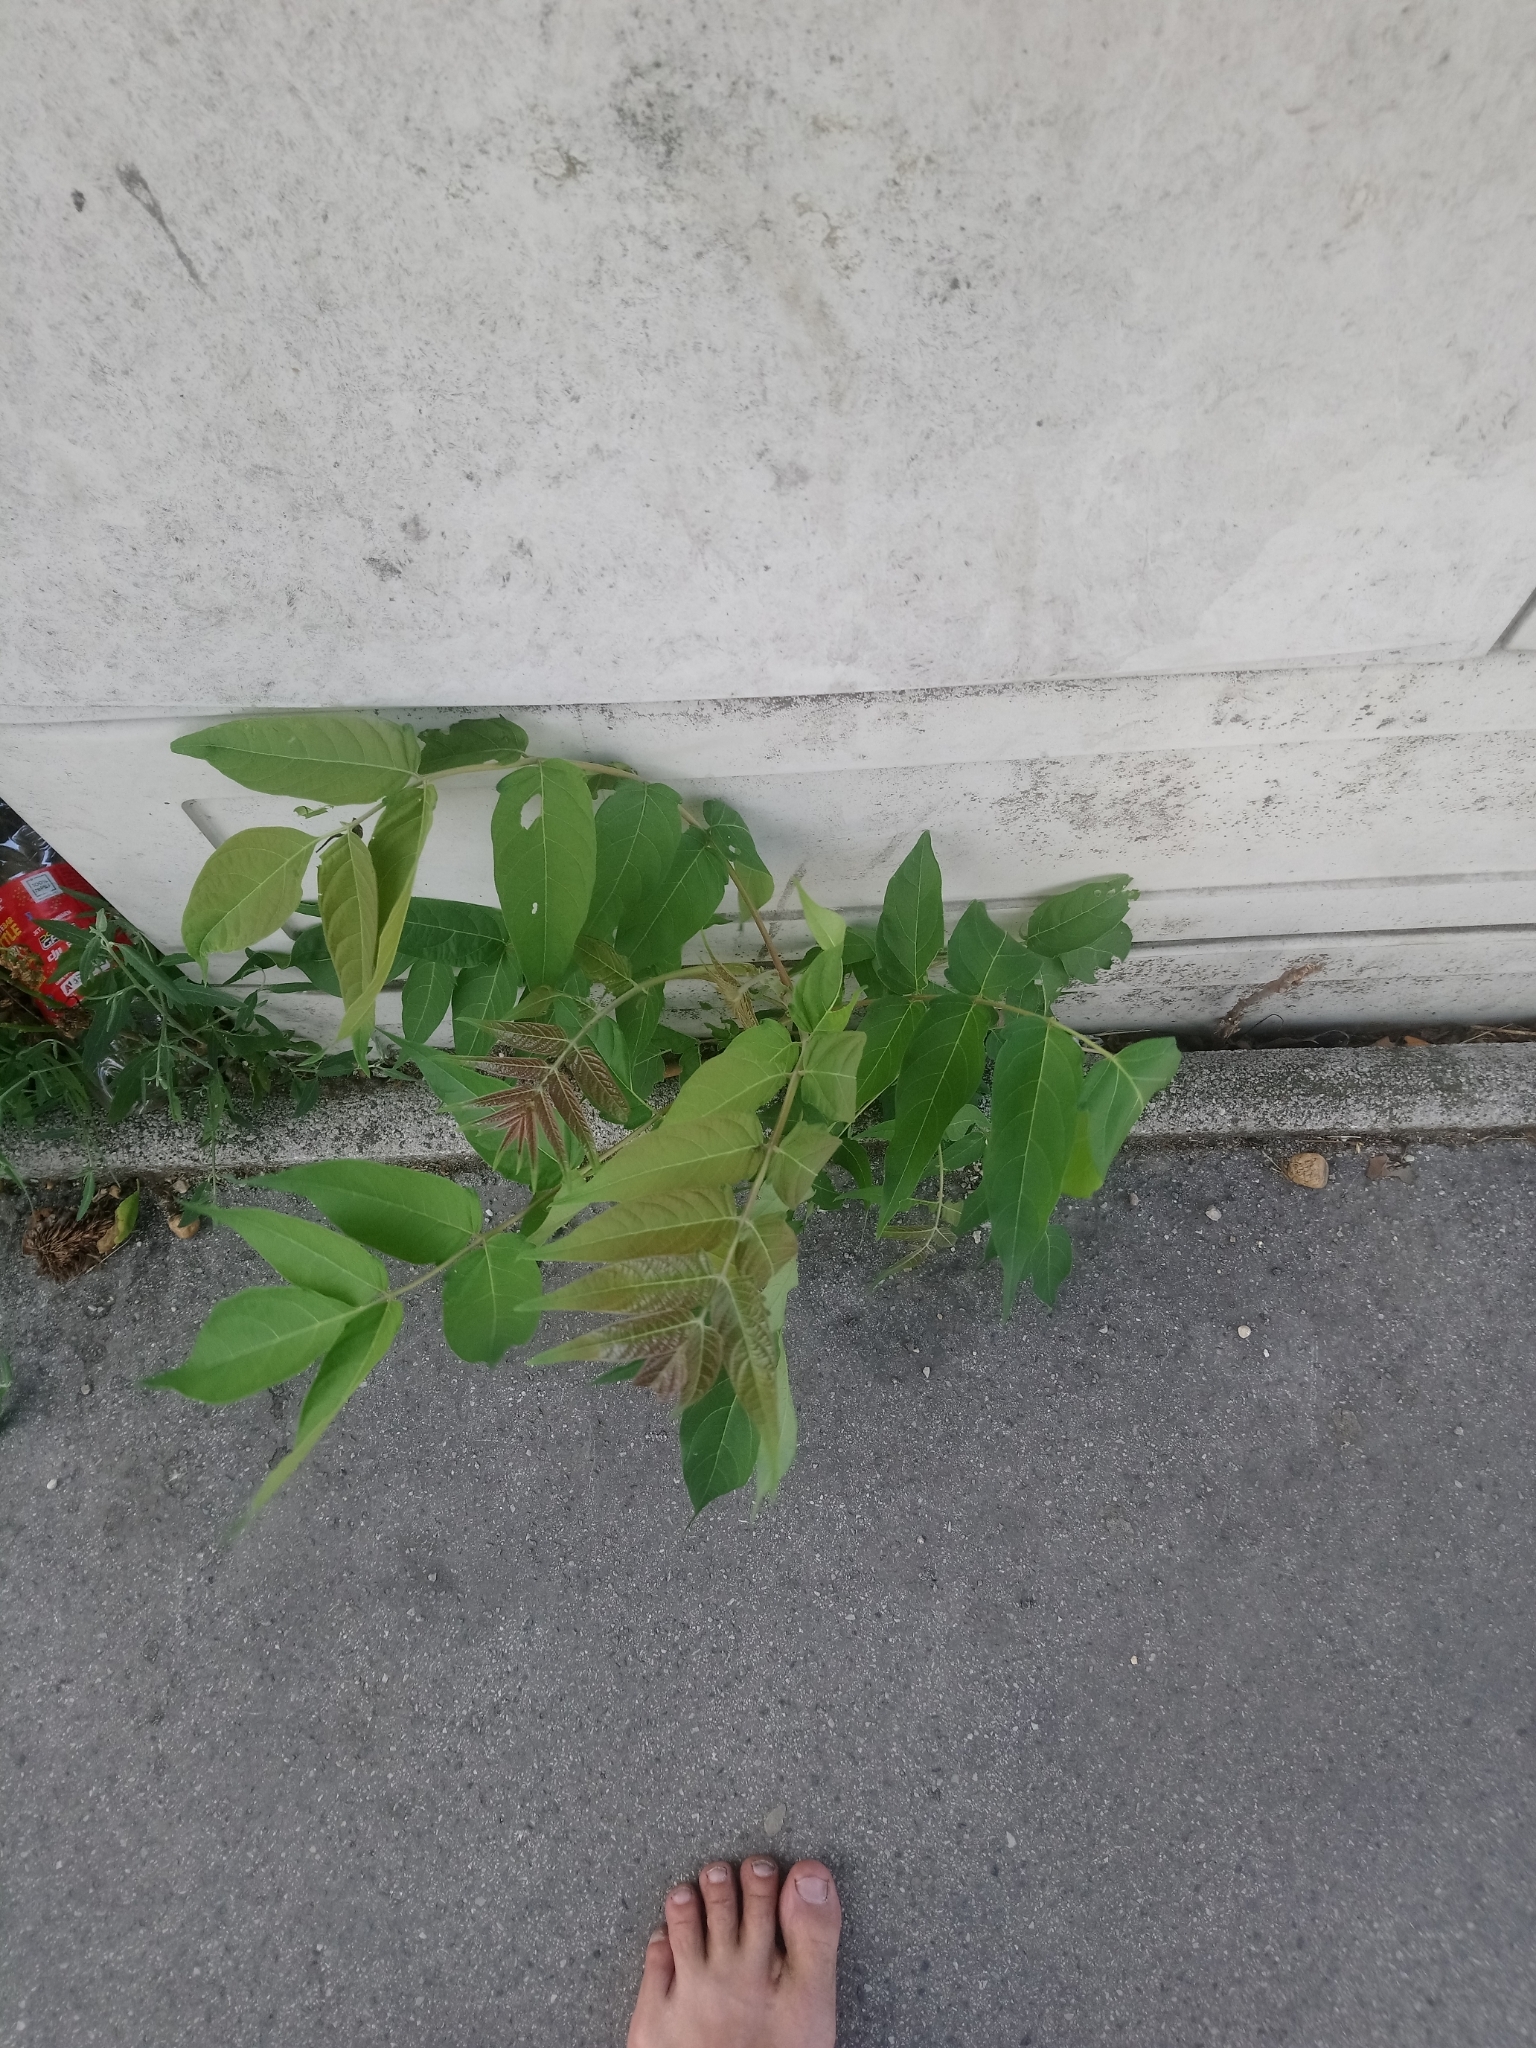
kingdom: Plantae
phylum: Tracheophyta
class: Magnoliopsida
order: Sapindales
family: Simaroubaceae
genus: Ailanthus
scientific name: Ailanthus altissima
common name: Tree-of-heaven
